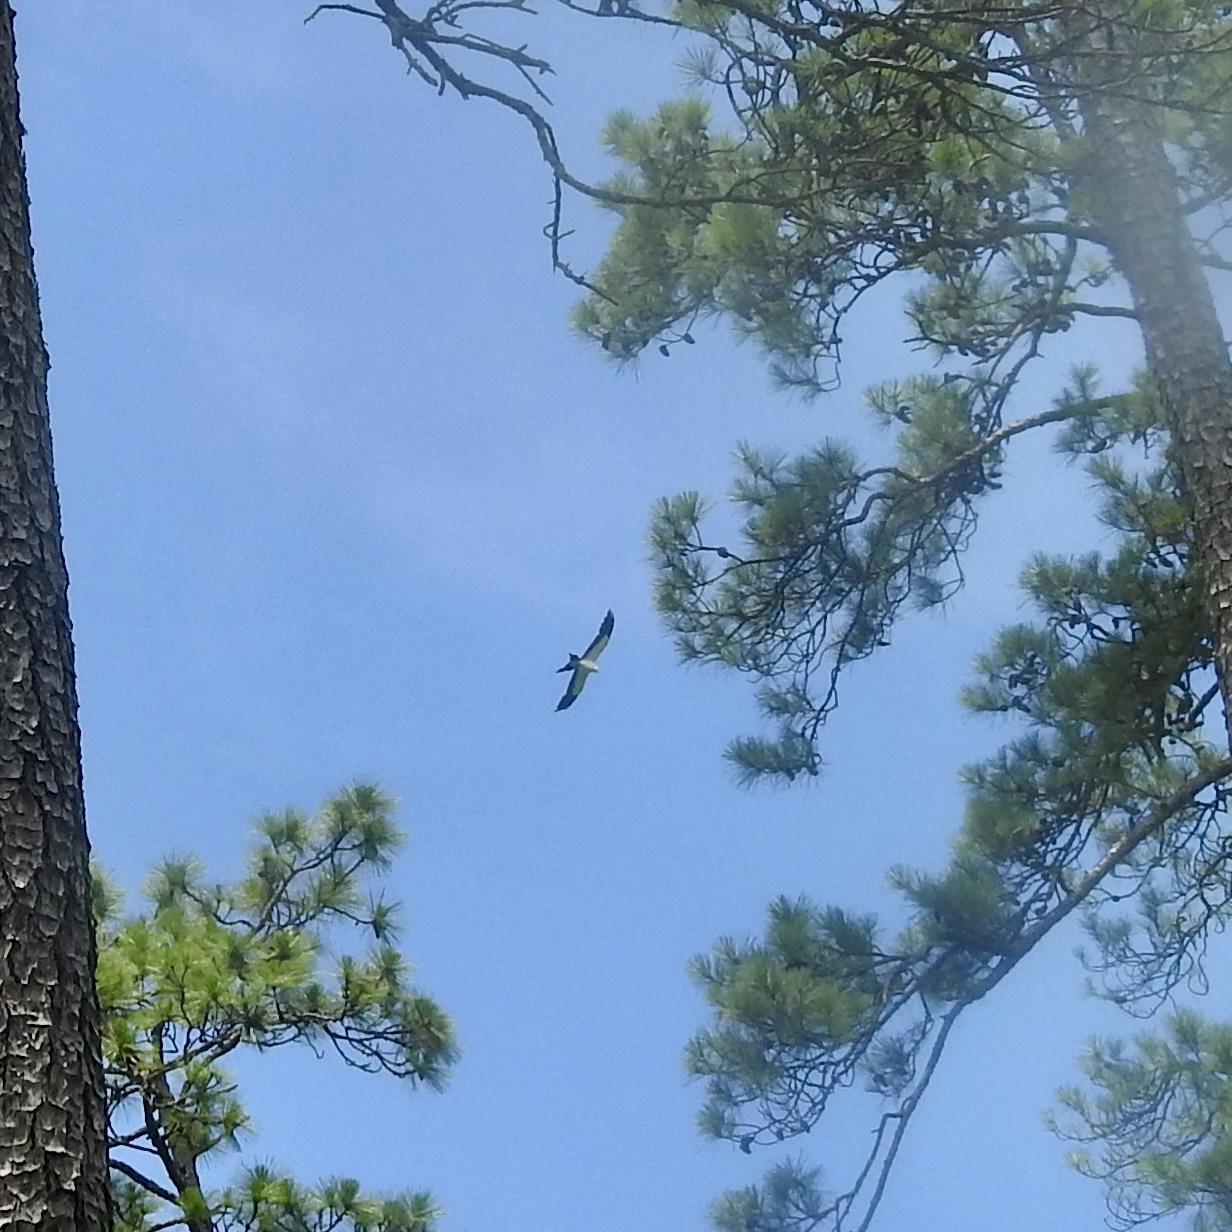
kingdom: Animalia
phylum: Chordata
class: Aves
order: Accipitriformes
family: Accipitridae
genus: Elanoides
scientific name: Elanoides forficatus
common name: Swallow-tailed kite
